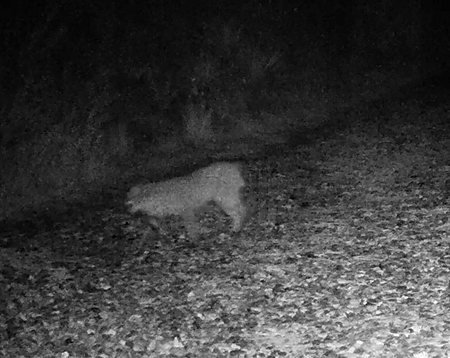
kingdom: Animalia
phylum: Chordata
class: Mammalia
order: Carnivora
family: Felidae
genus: Lynx
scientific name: Lynx rufus
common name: Bobcat
